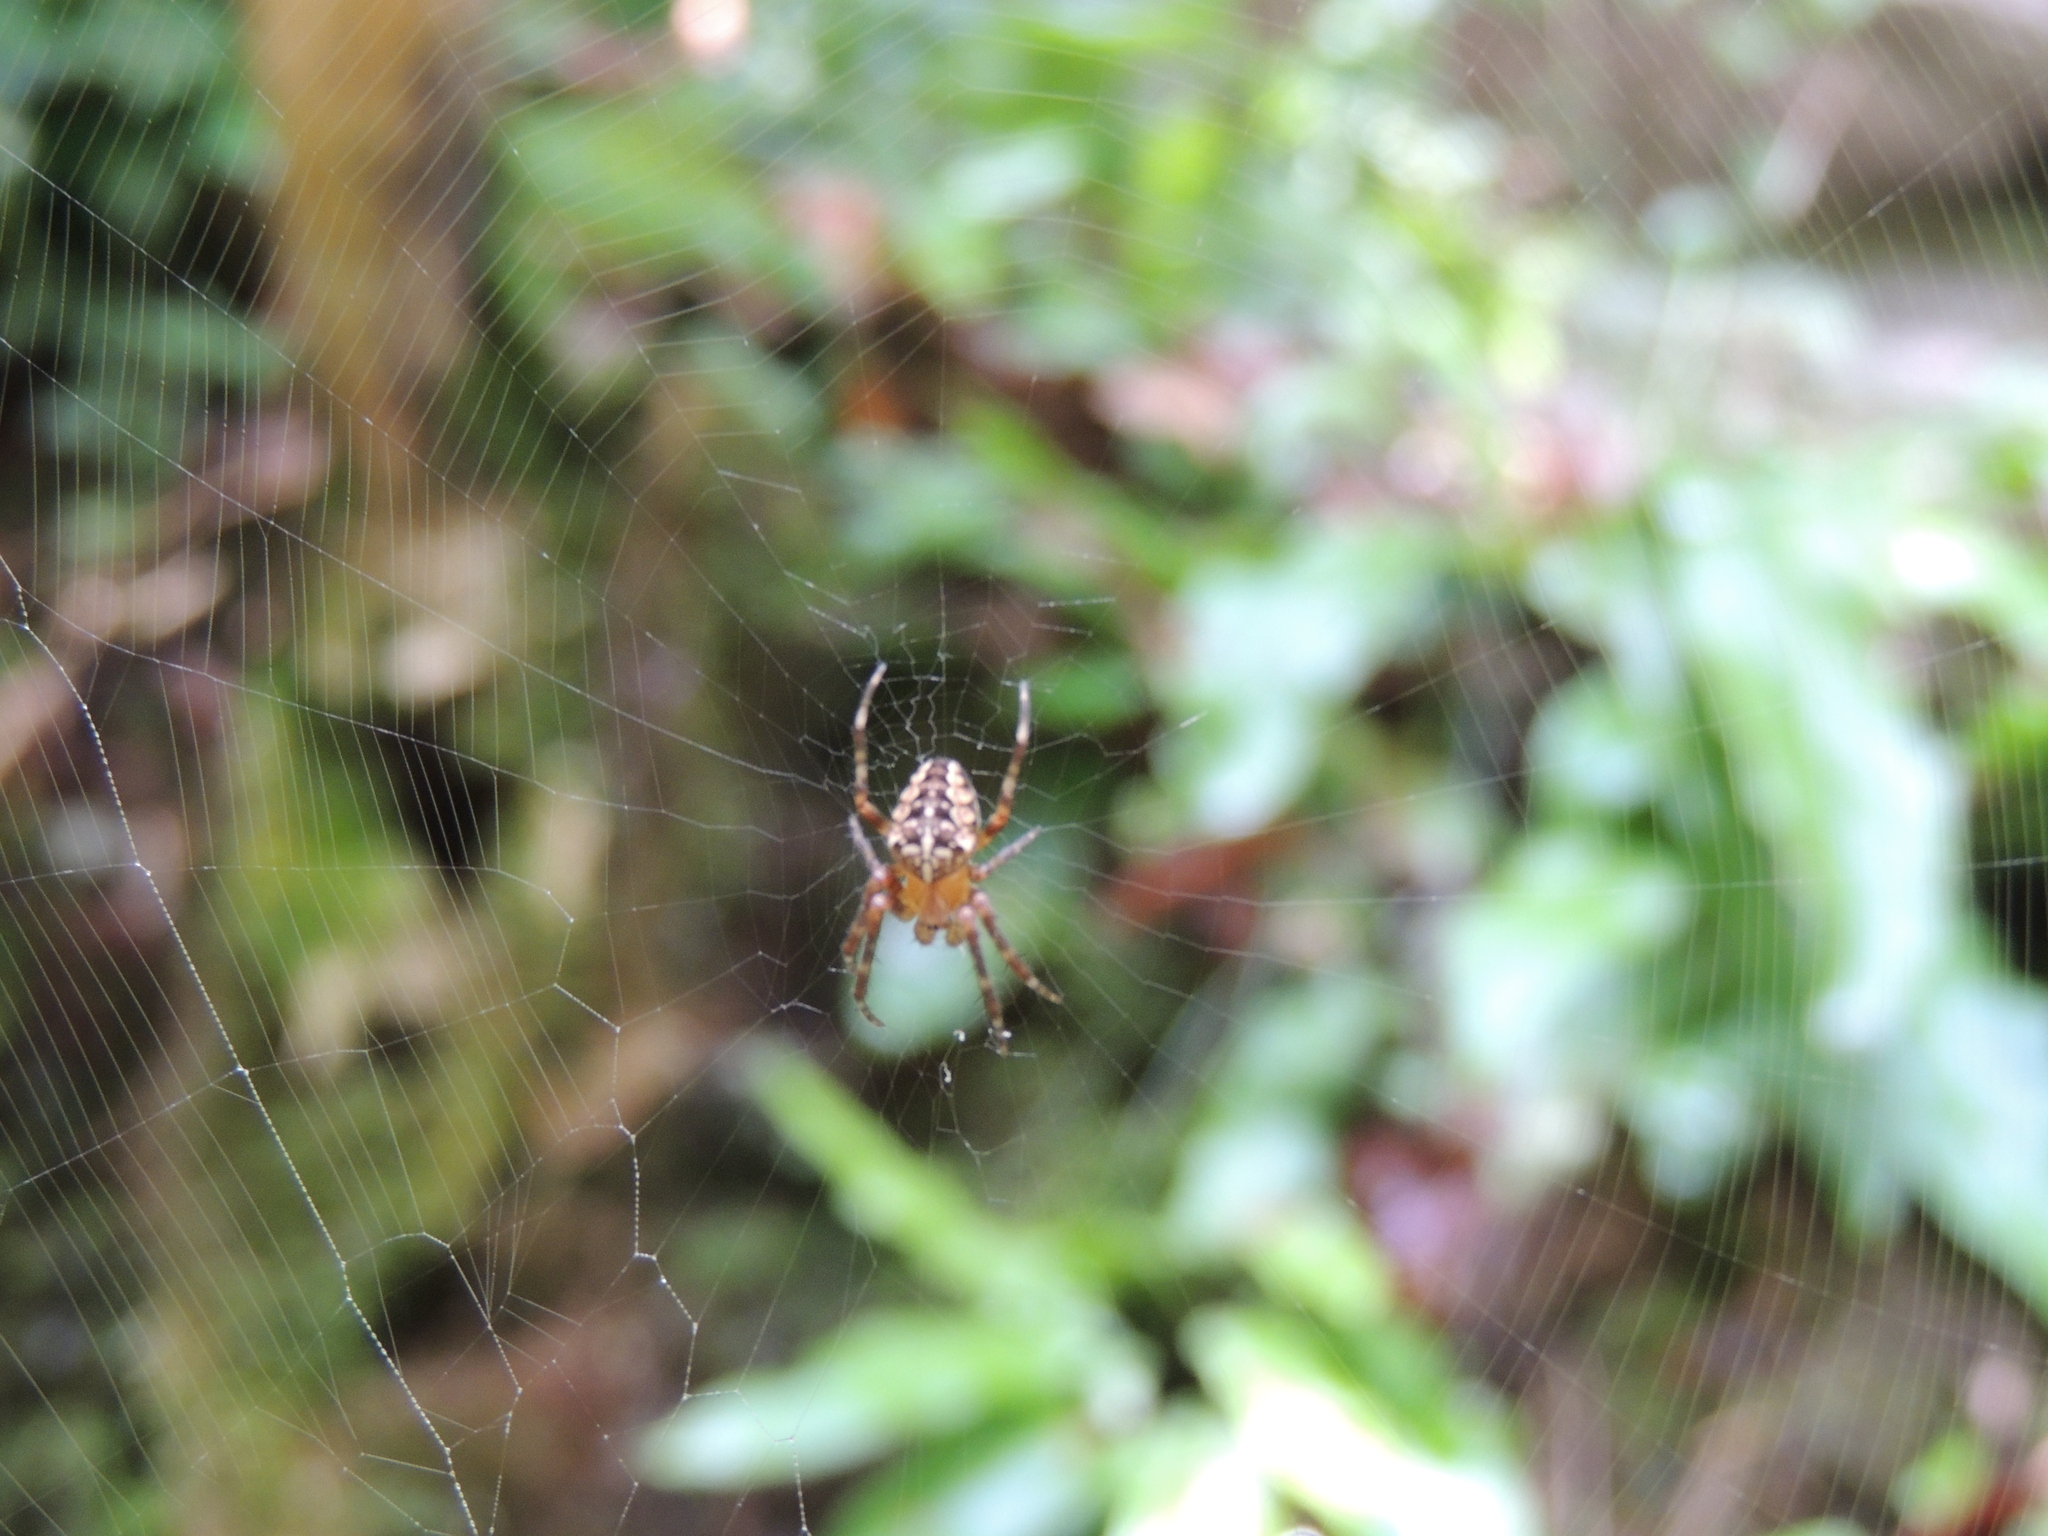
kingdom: Animalia
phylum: Arthropoda
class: Arachnida
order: Araneae
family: Araneidae
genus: Araneus
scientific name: Araneus diadematus
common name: Cross orbweaver
